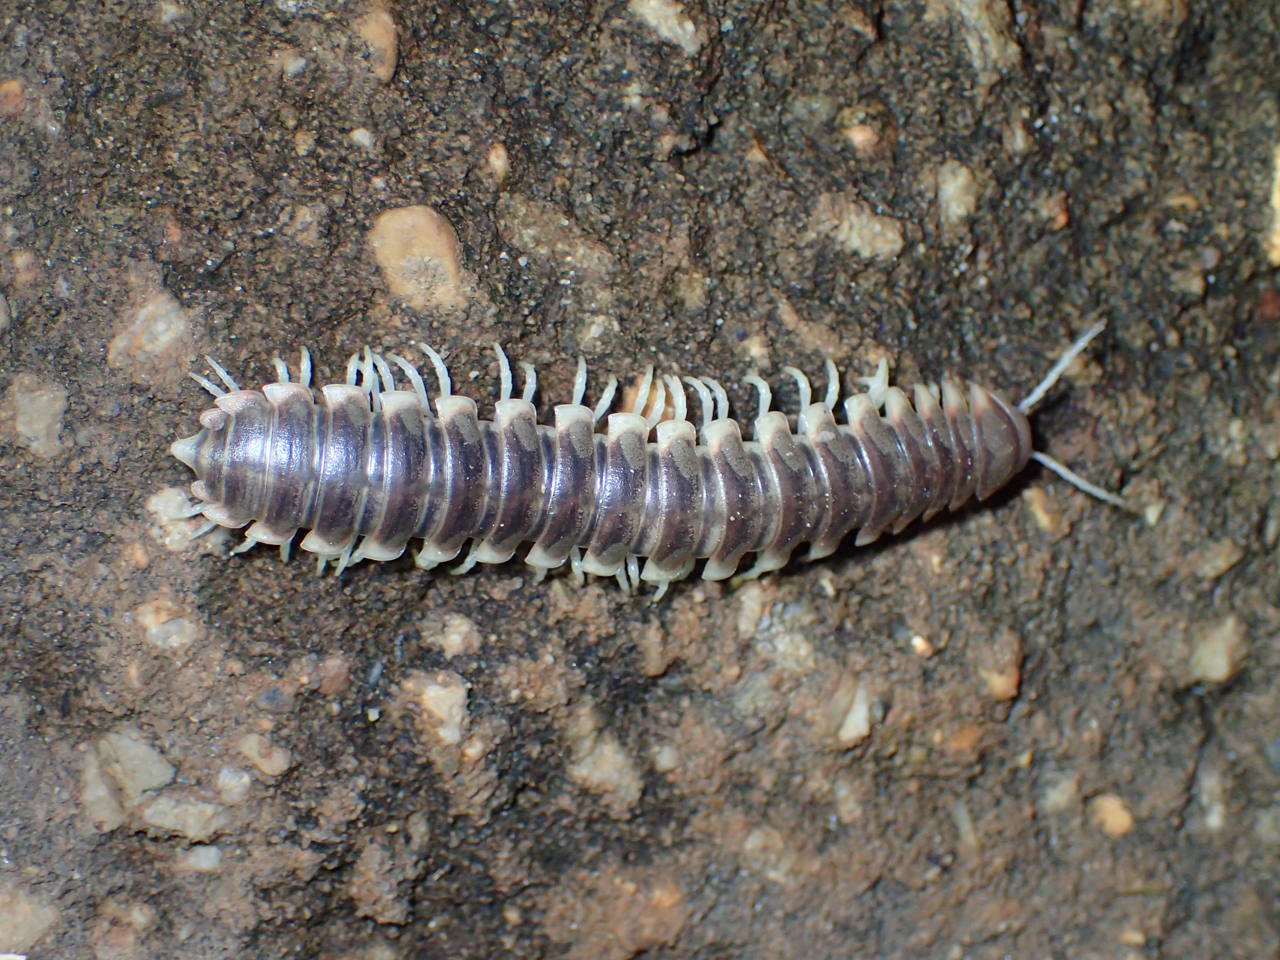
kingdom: Animalia
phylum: Arthropoda
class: Diplopoda
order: Polydesmida
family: Xystodesmidae
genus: Pachydesmus
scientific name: Pachydesmus crassicutis
